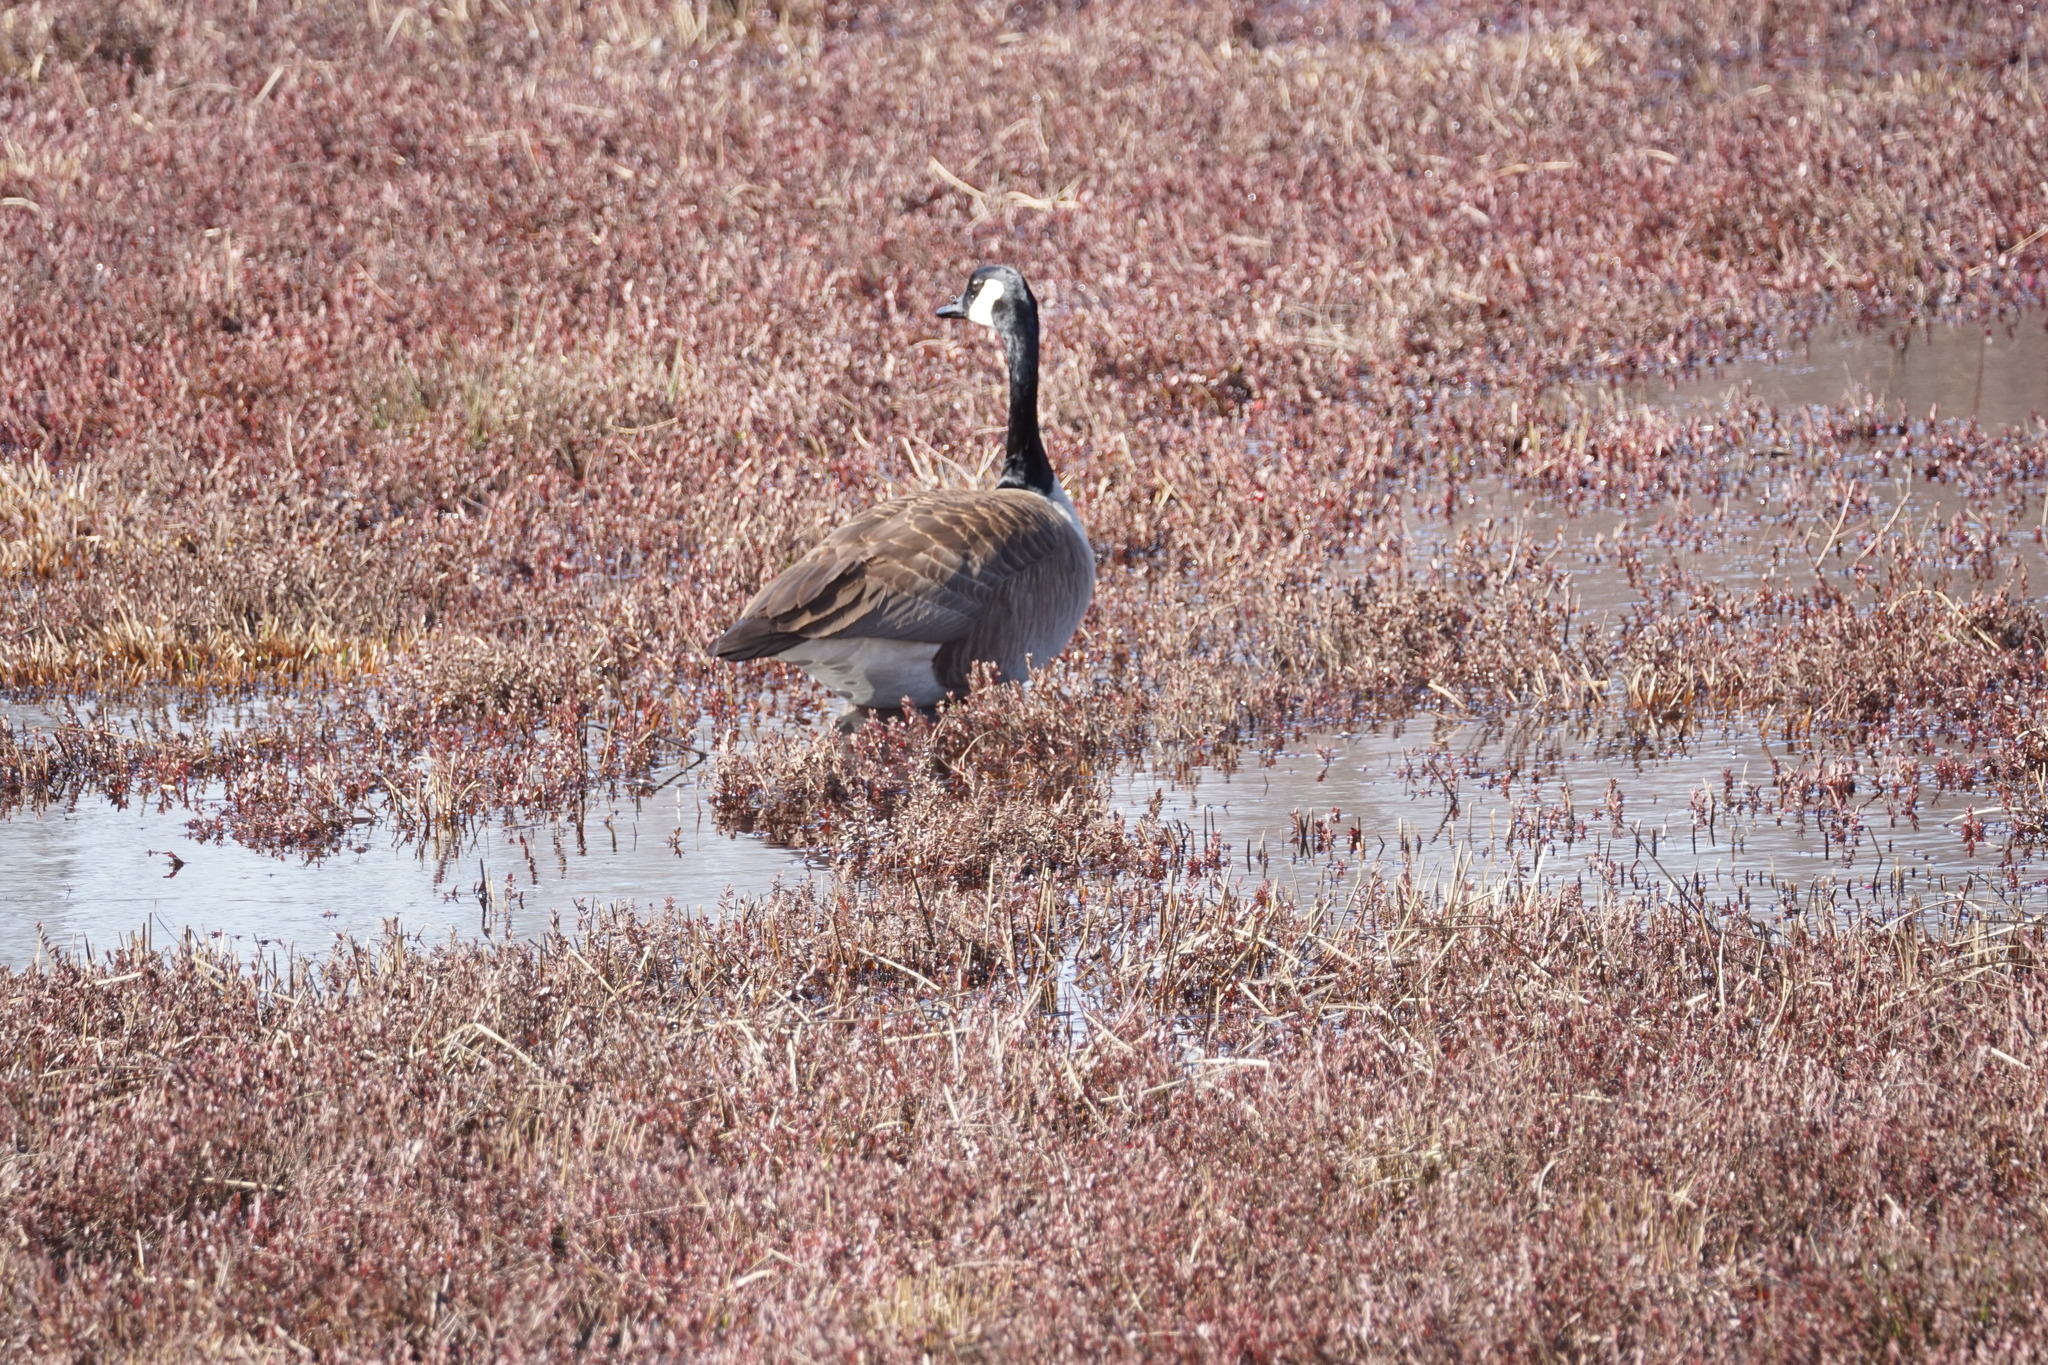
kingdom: Animalia
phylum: Chordata
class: Aves
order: Anseriformes
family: Anatidae
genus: Branta
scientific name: Branta canadensis
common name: Canada goose
